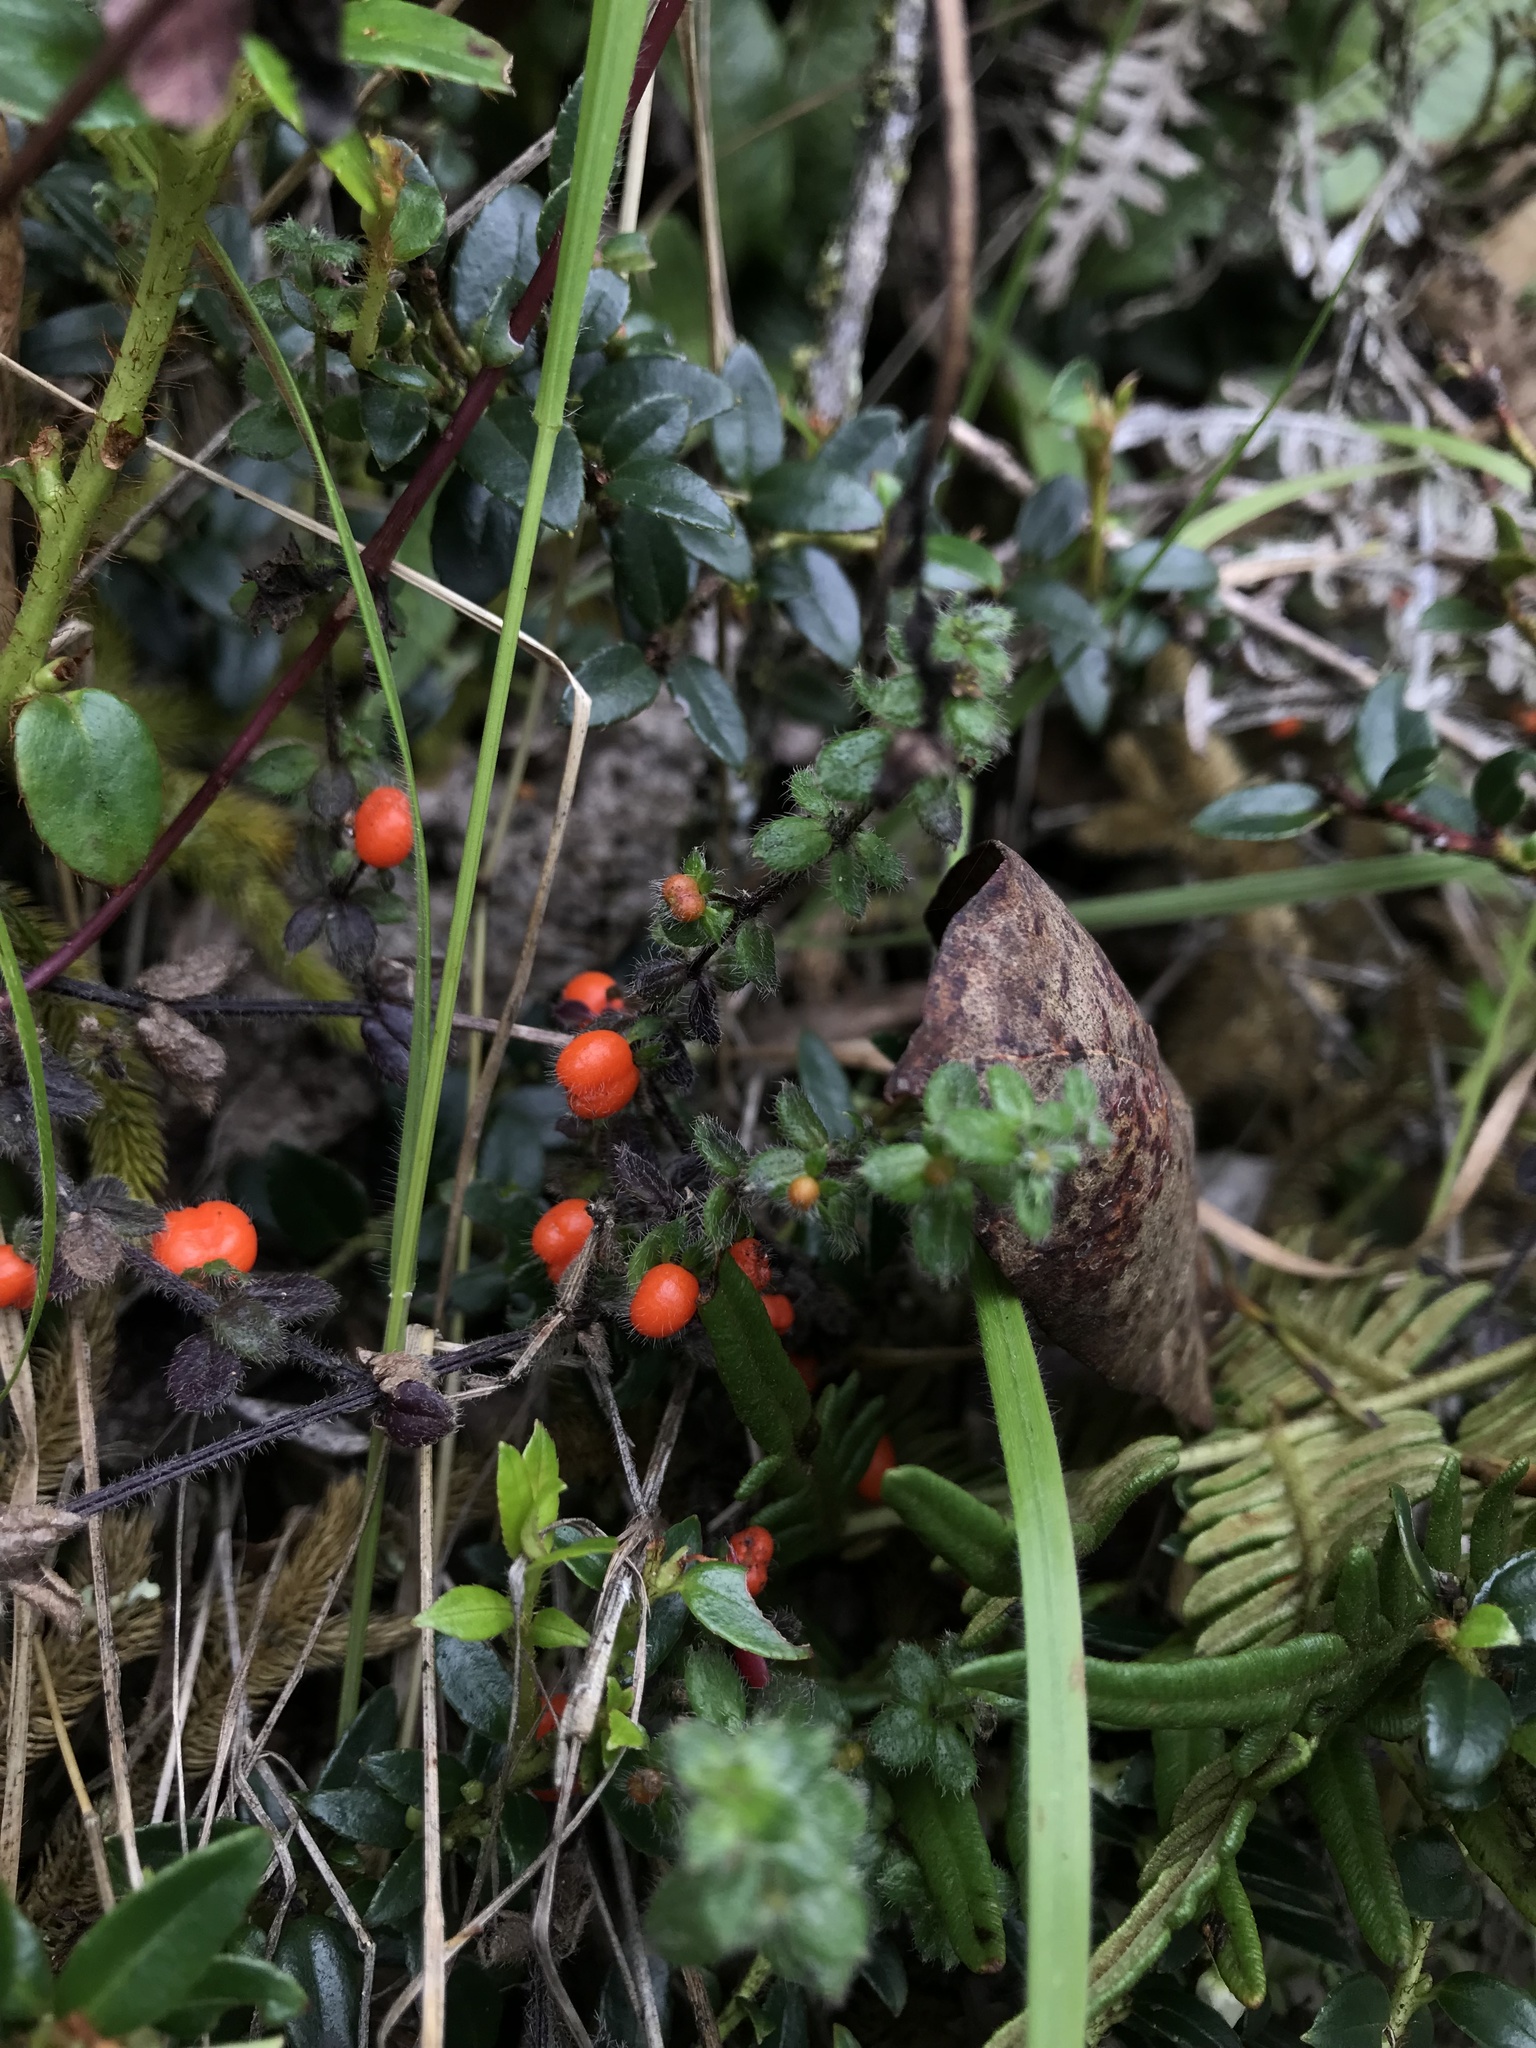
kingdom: Plantae
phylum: Tracheophyta
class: Magnoliopsida
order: Gentianales
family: Rubiaceae
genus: Galium
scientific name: Galium hypocarpium
